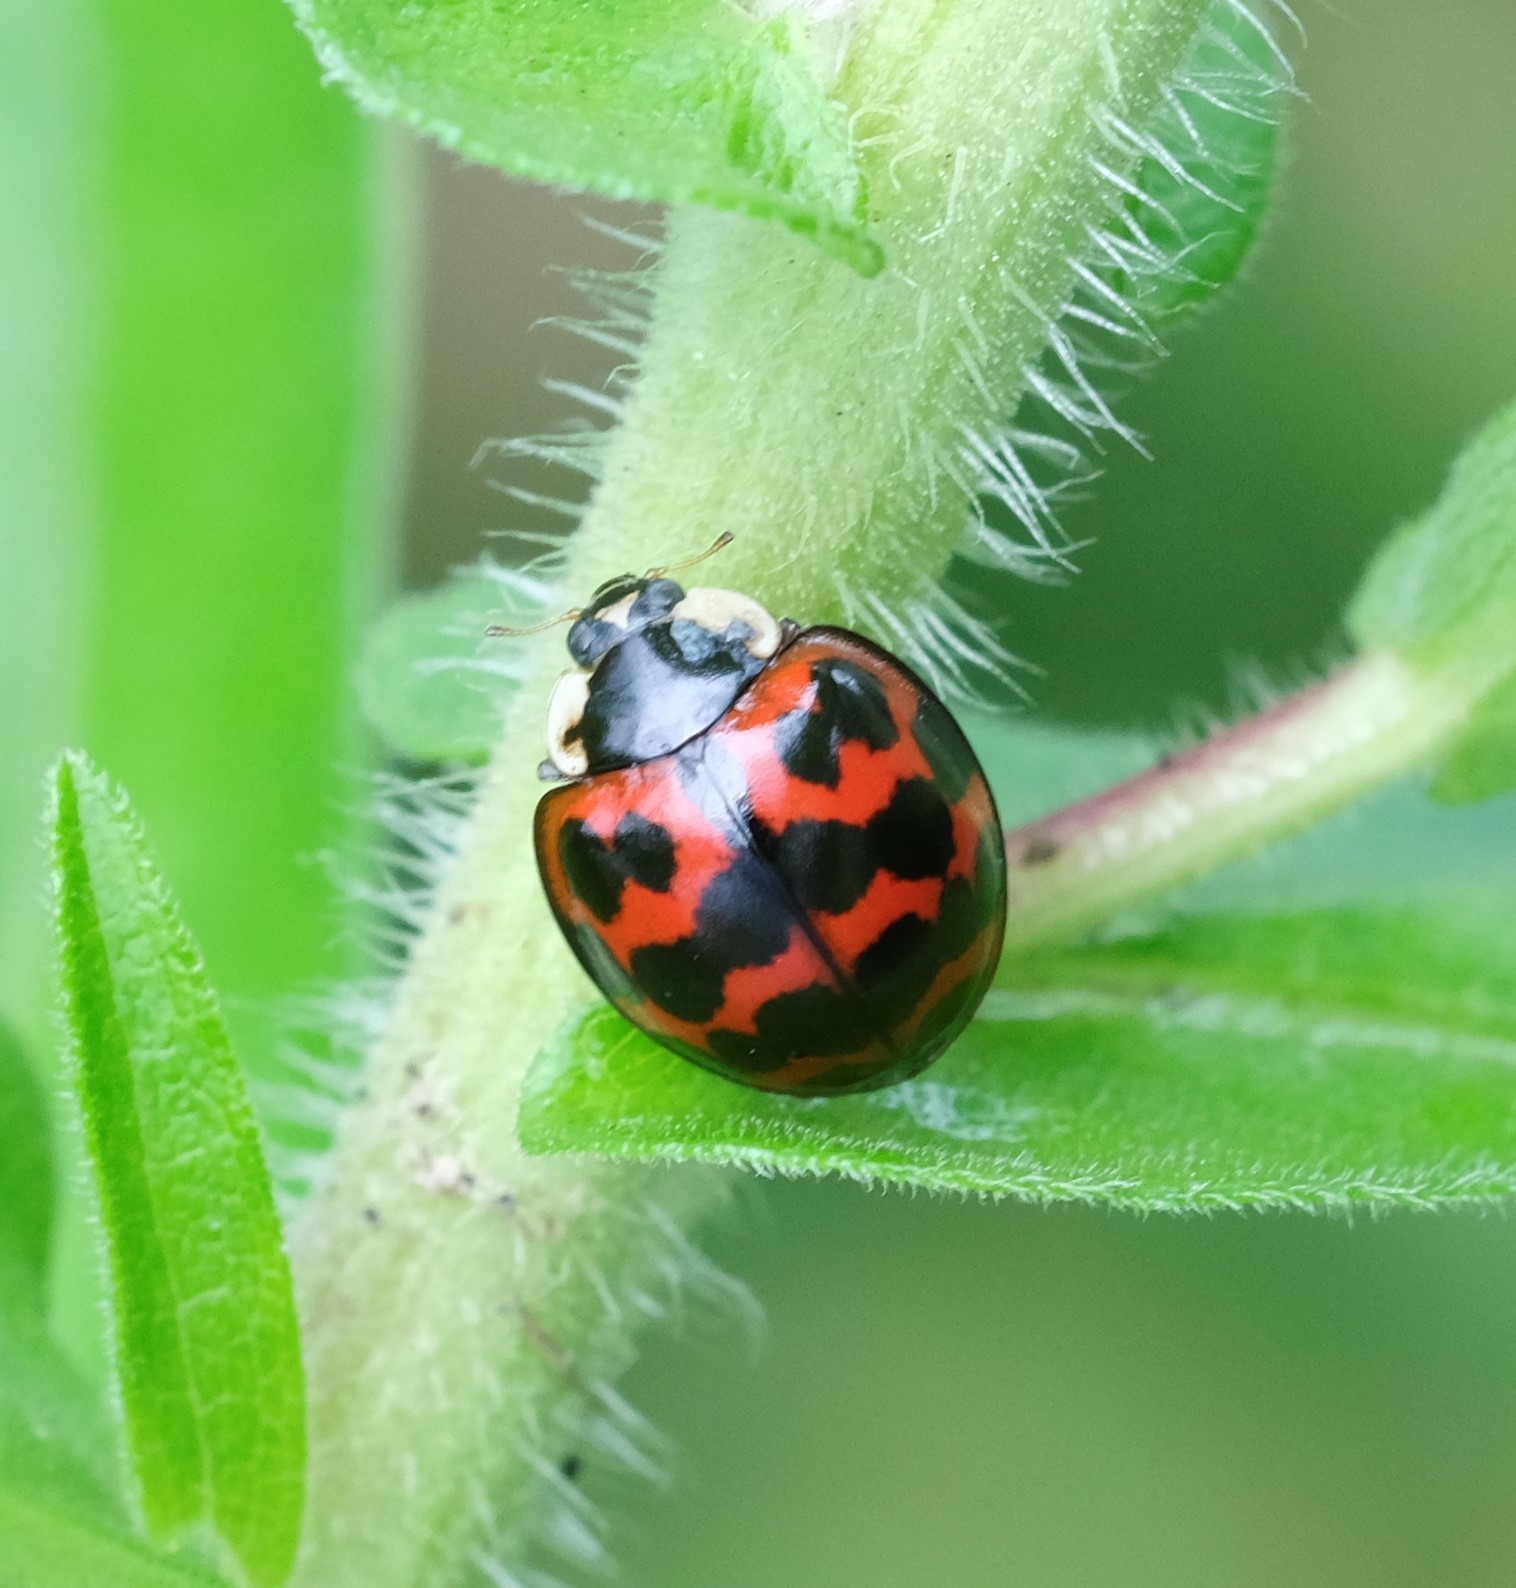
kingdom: Animalia
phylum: Arthropoda
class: Insecta
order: Coleoptera
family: Coccinellidae
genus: Harmonia
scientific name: Harmonia axyridis
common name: Harlequin ladybird
